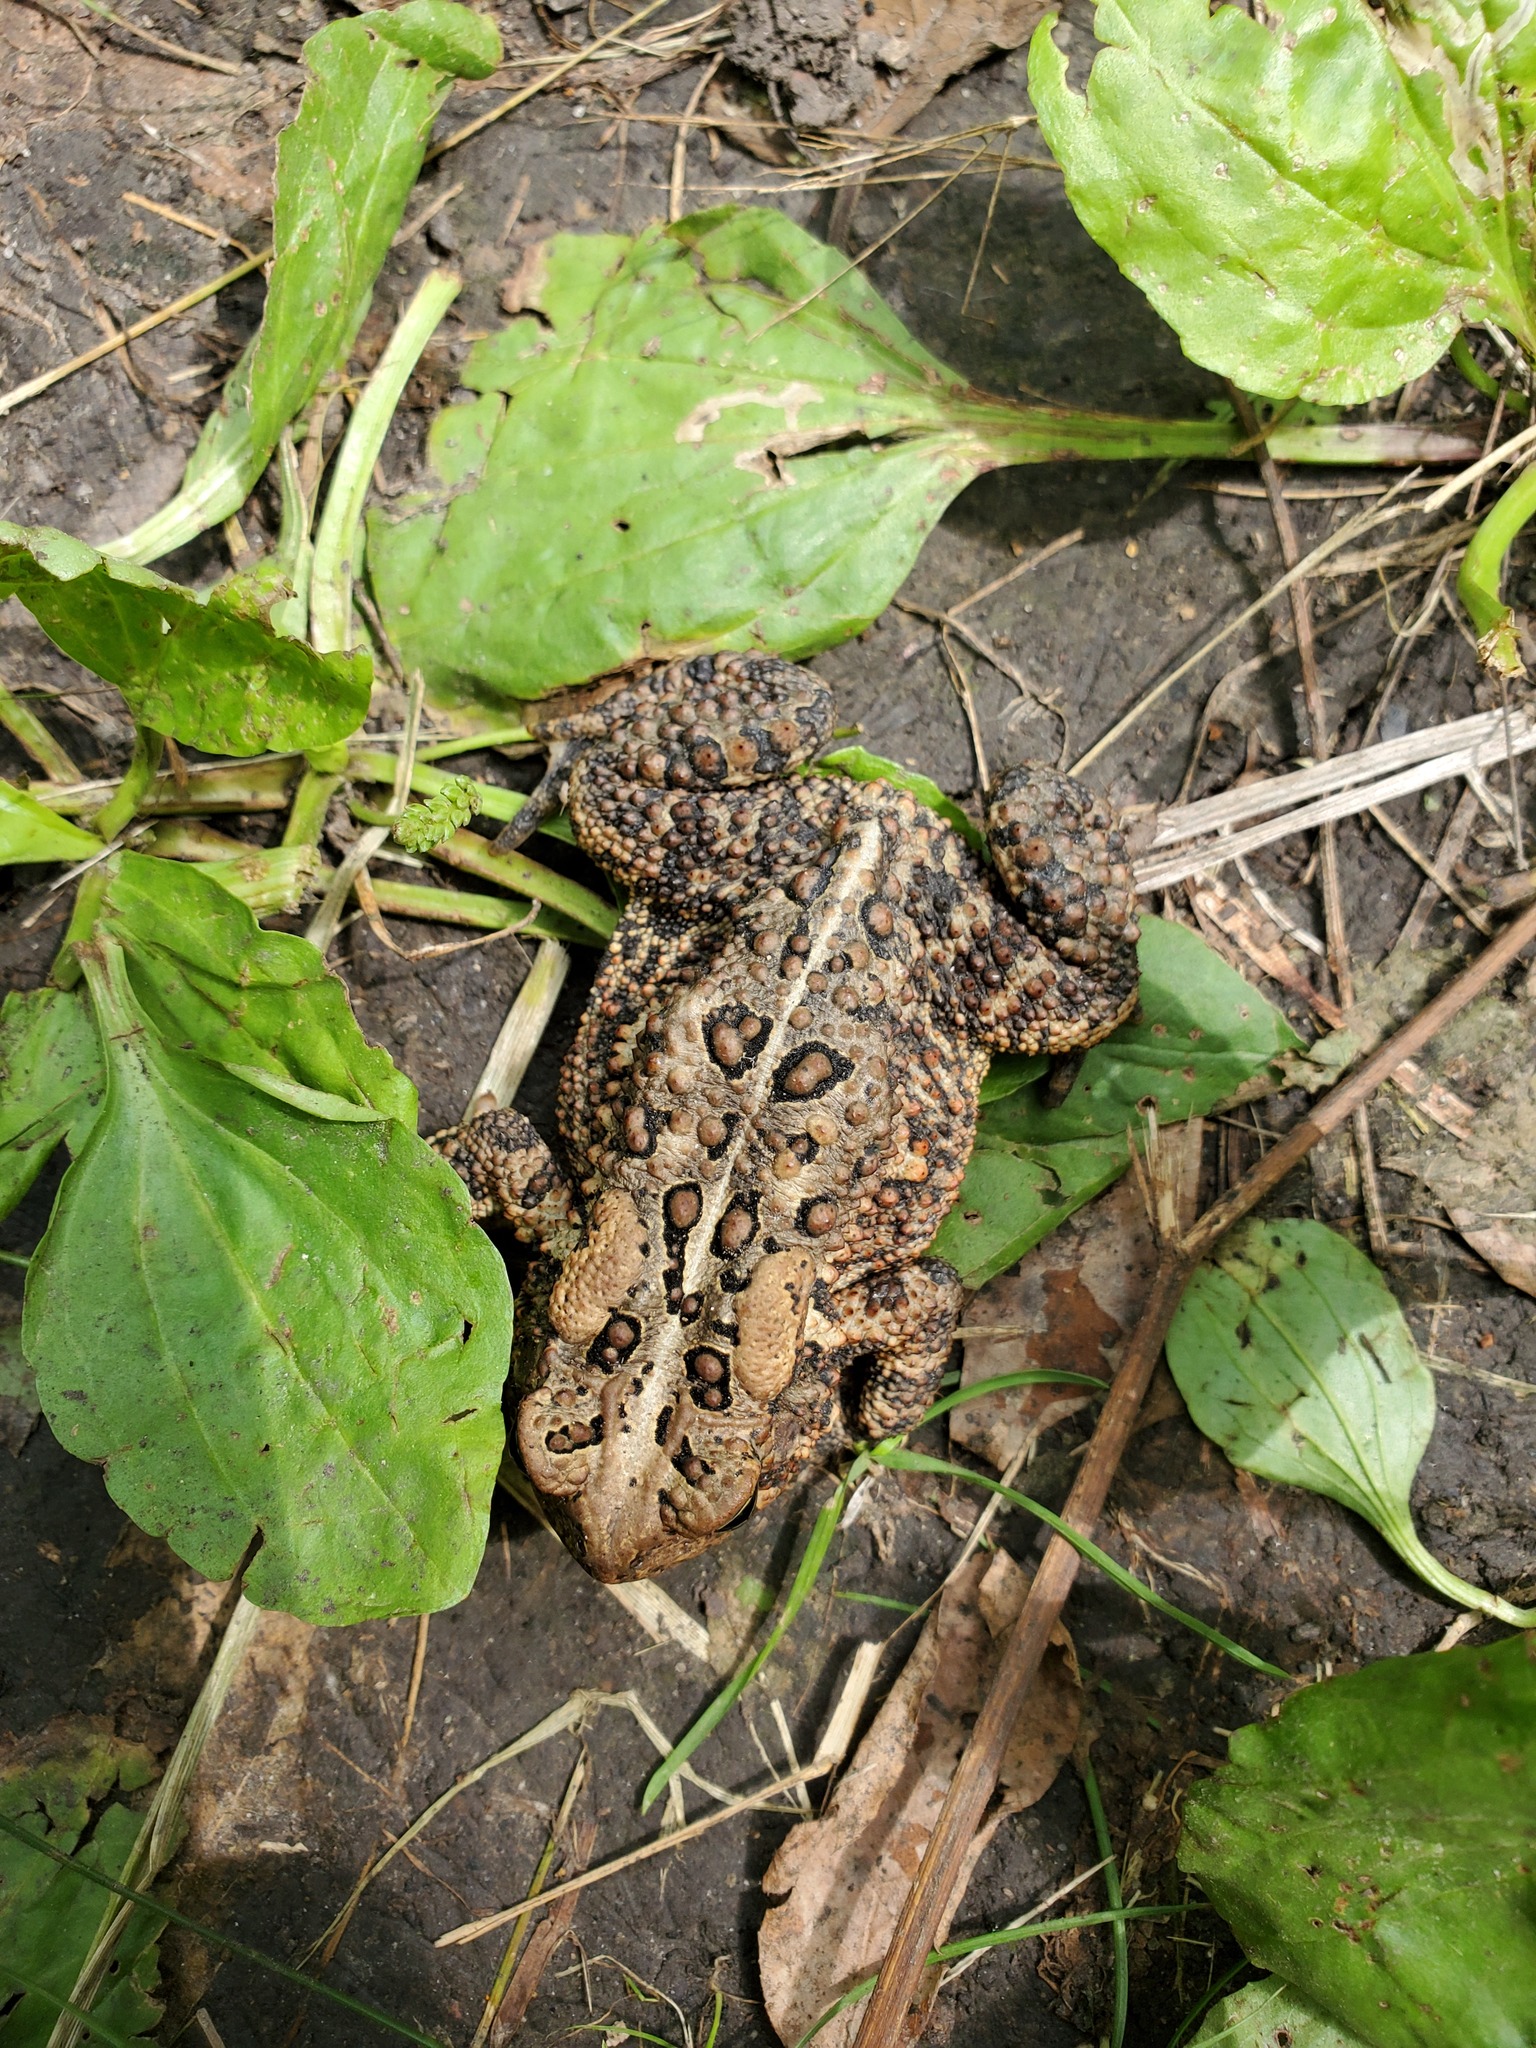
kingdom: Animalia
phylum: Chordata
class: Amphibia
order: Anura
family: Bufonidae
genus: Anaxyrus
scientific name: Anaxyrus americanus
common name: American toad
